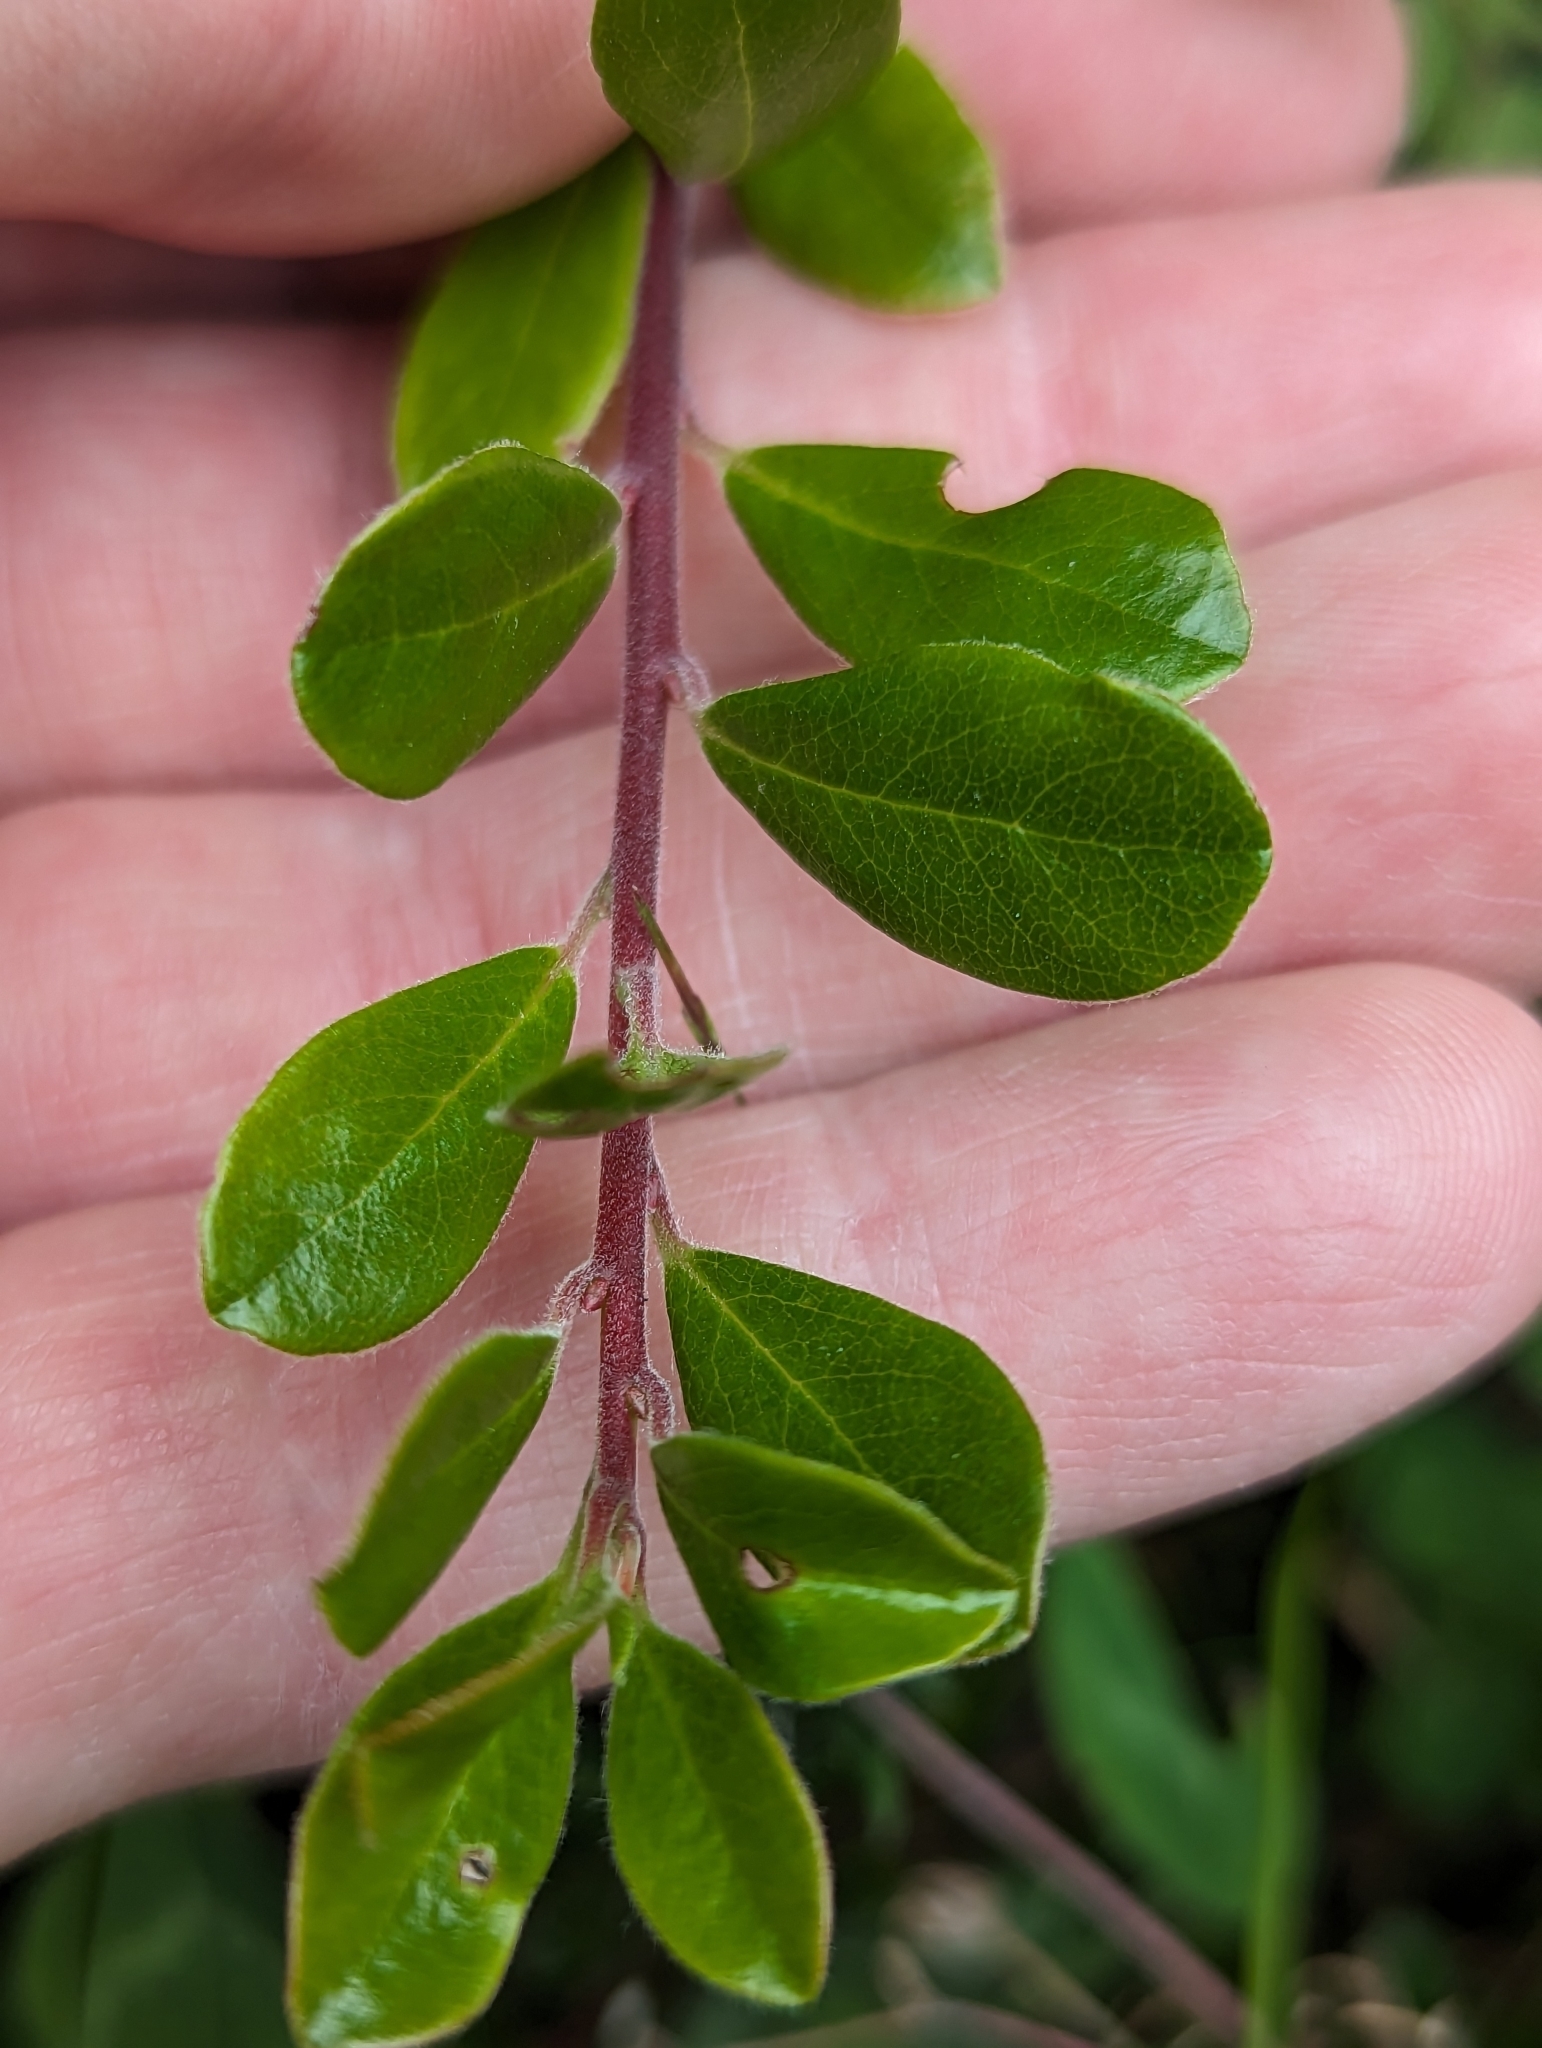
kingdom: Plantae
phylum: Tracheophyta
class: Magnoliopsida
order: Ericales
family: Ericaceae
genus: Arctostaphylos
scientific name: Arctostaphylos uva-ursi
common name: Bearberry
